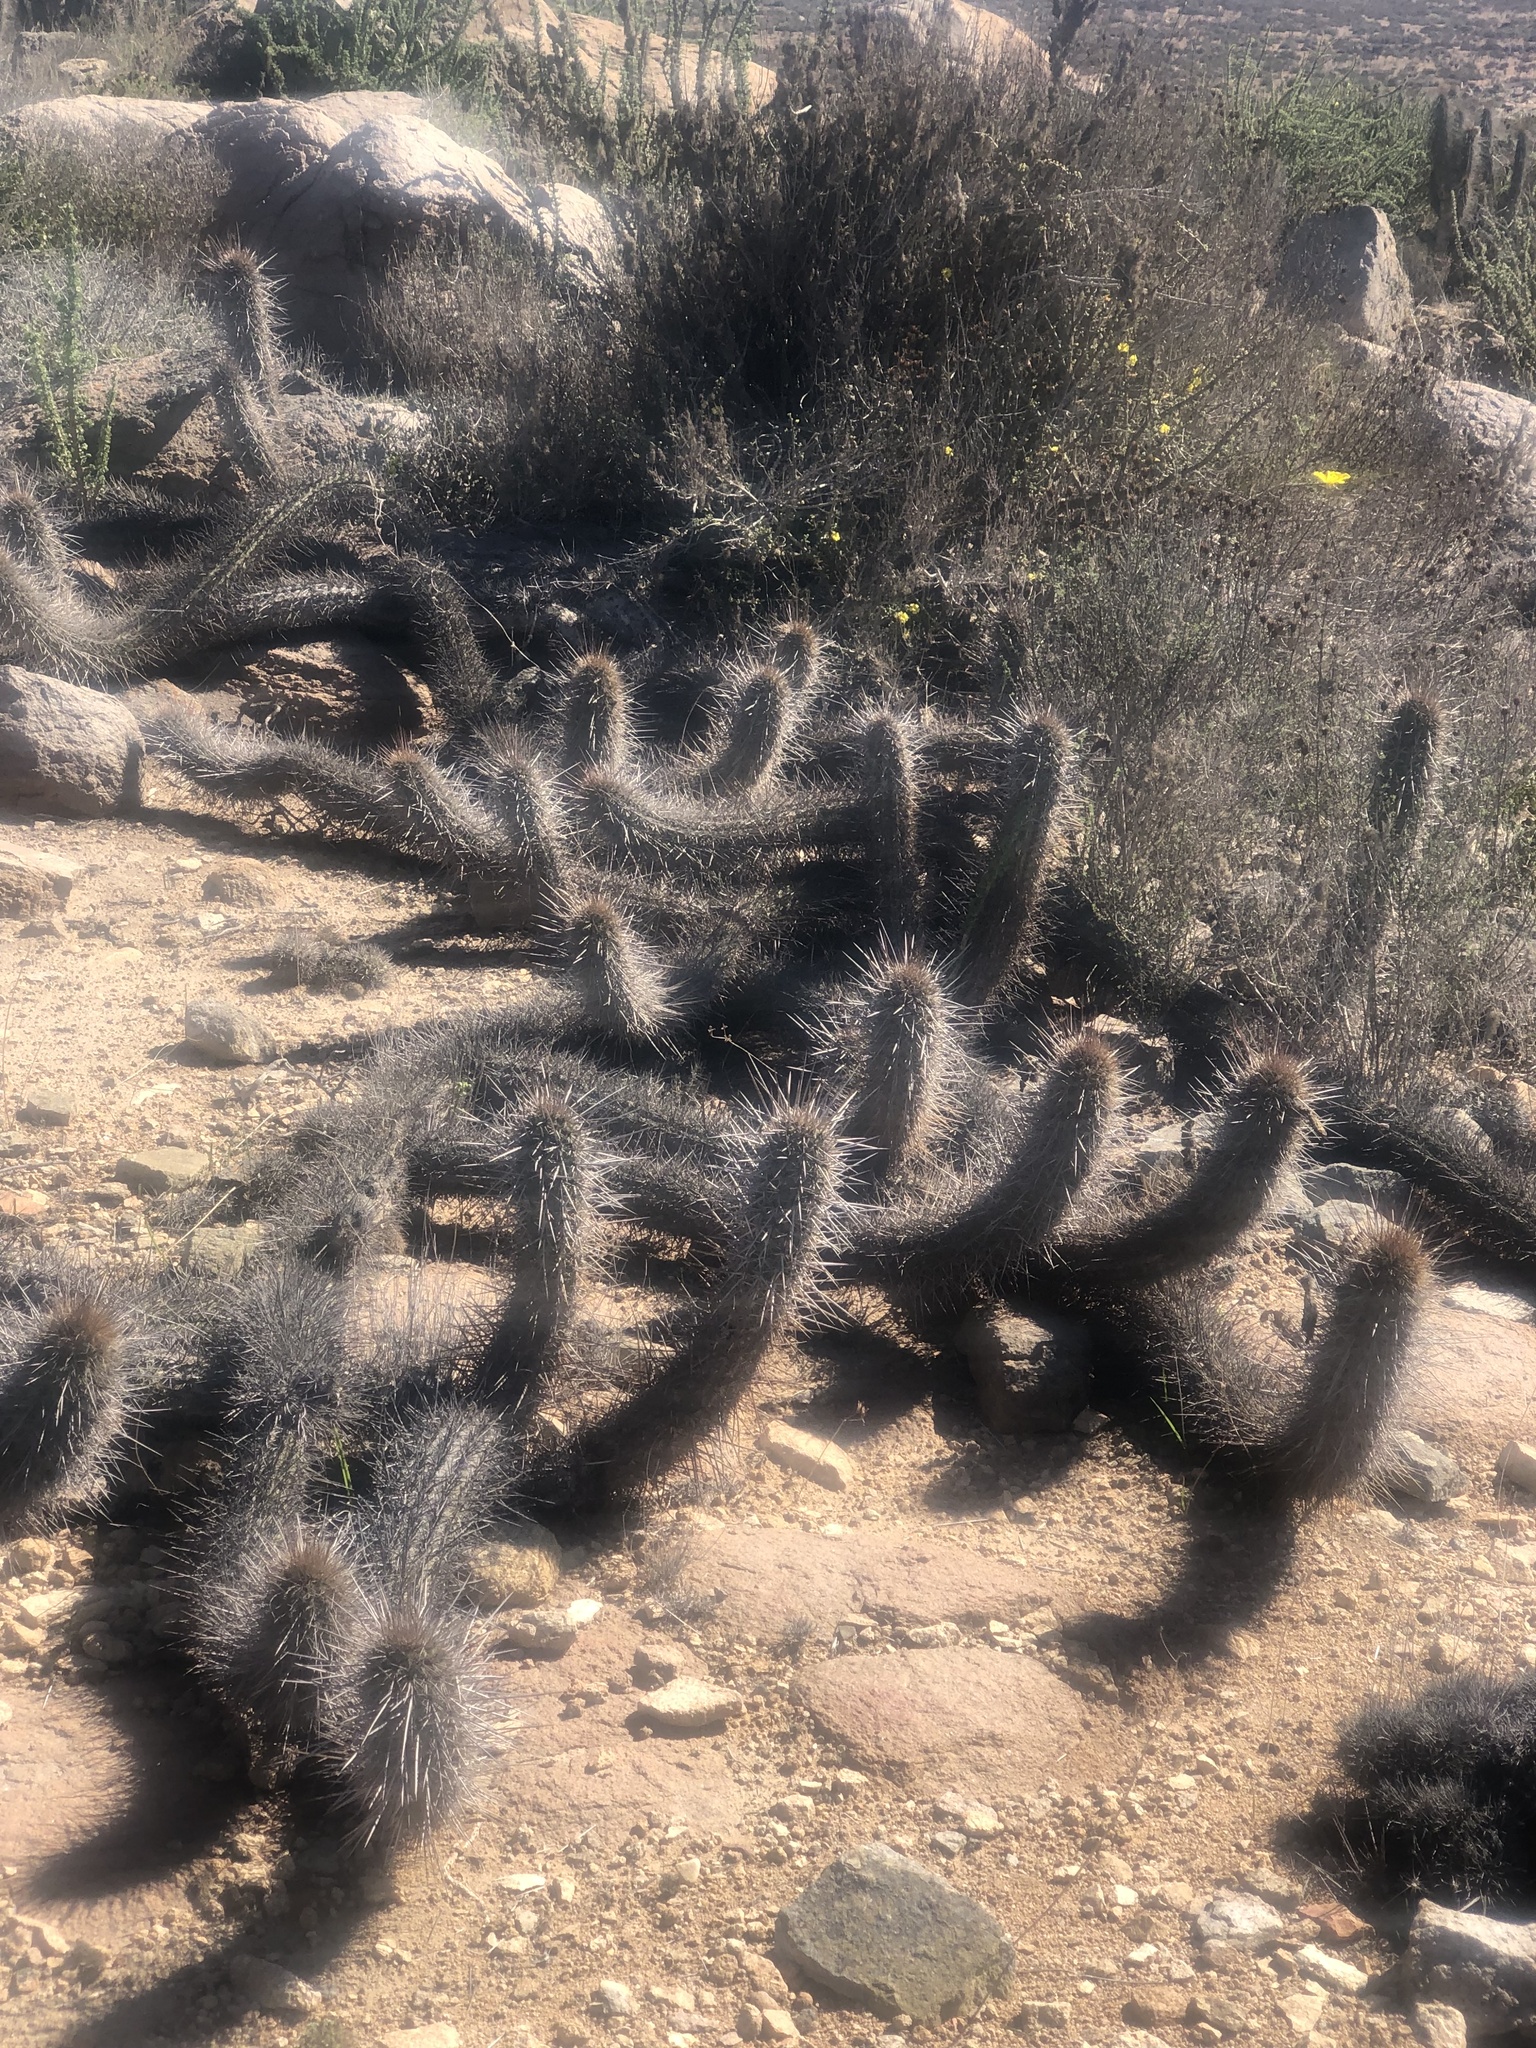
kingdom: Plantae
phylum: Tracheophyta
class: Magnoliopsida
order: Caryophyllales
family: Cactaceae
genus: Leucostele
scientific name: Leucostele deserticola
